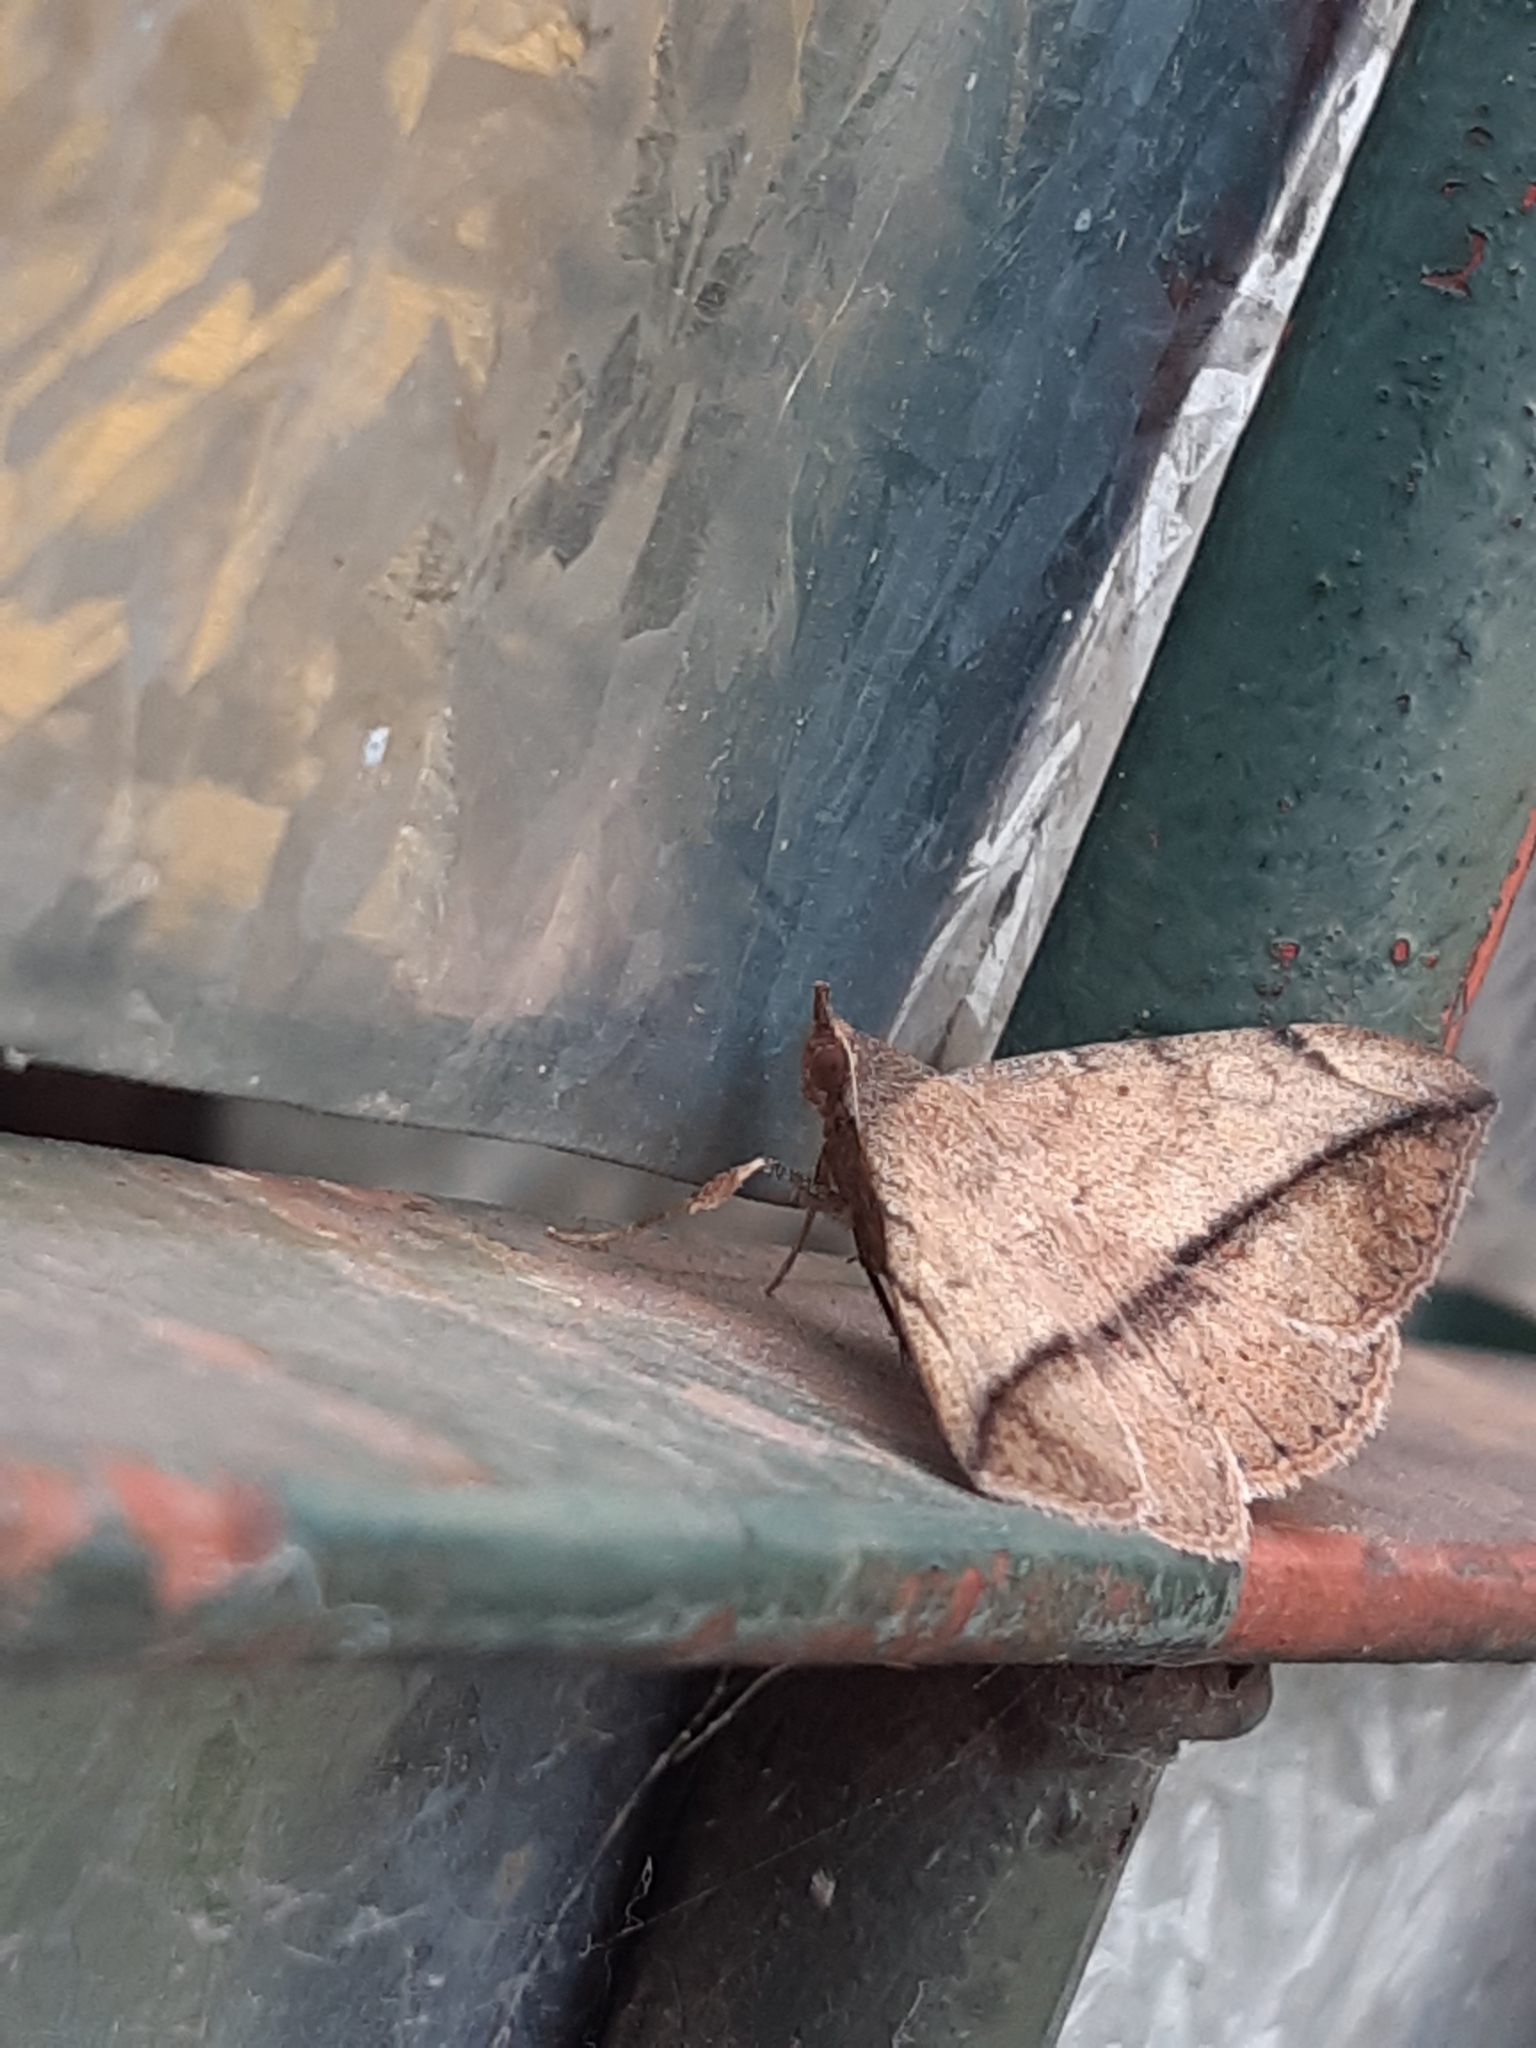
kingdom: Animalia
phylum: Arthropoda
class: Insecta
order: Lepidoptera
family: Erebidae
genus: Anticarsia
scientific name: Anticarsia gemmatalis
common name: Cutworm moth
